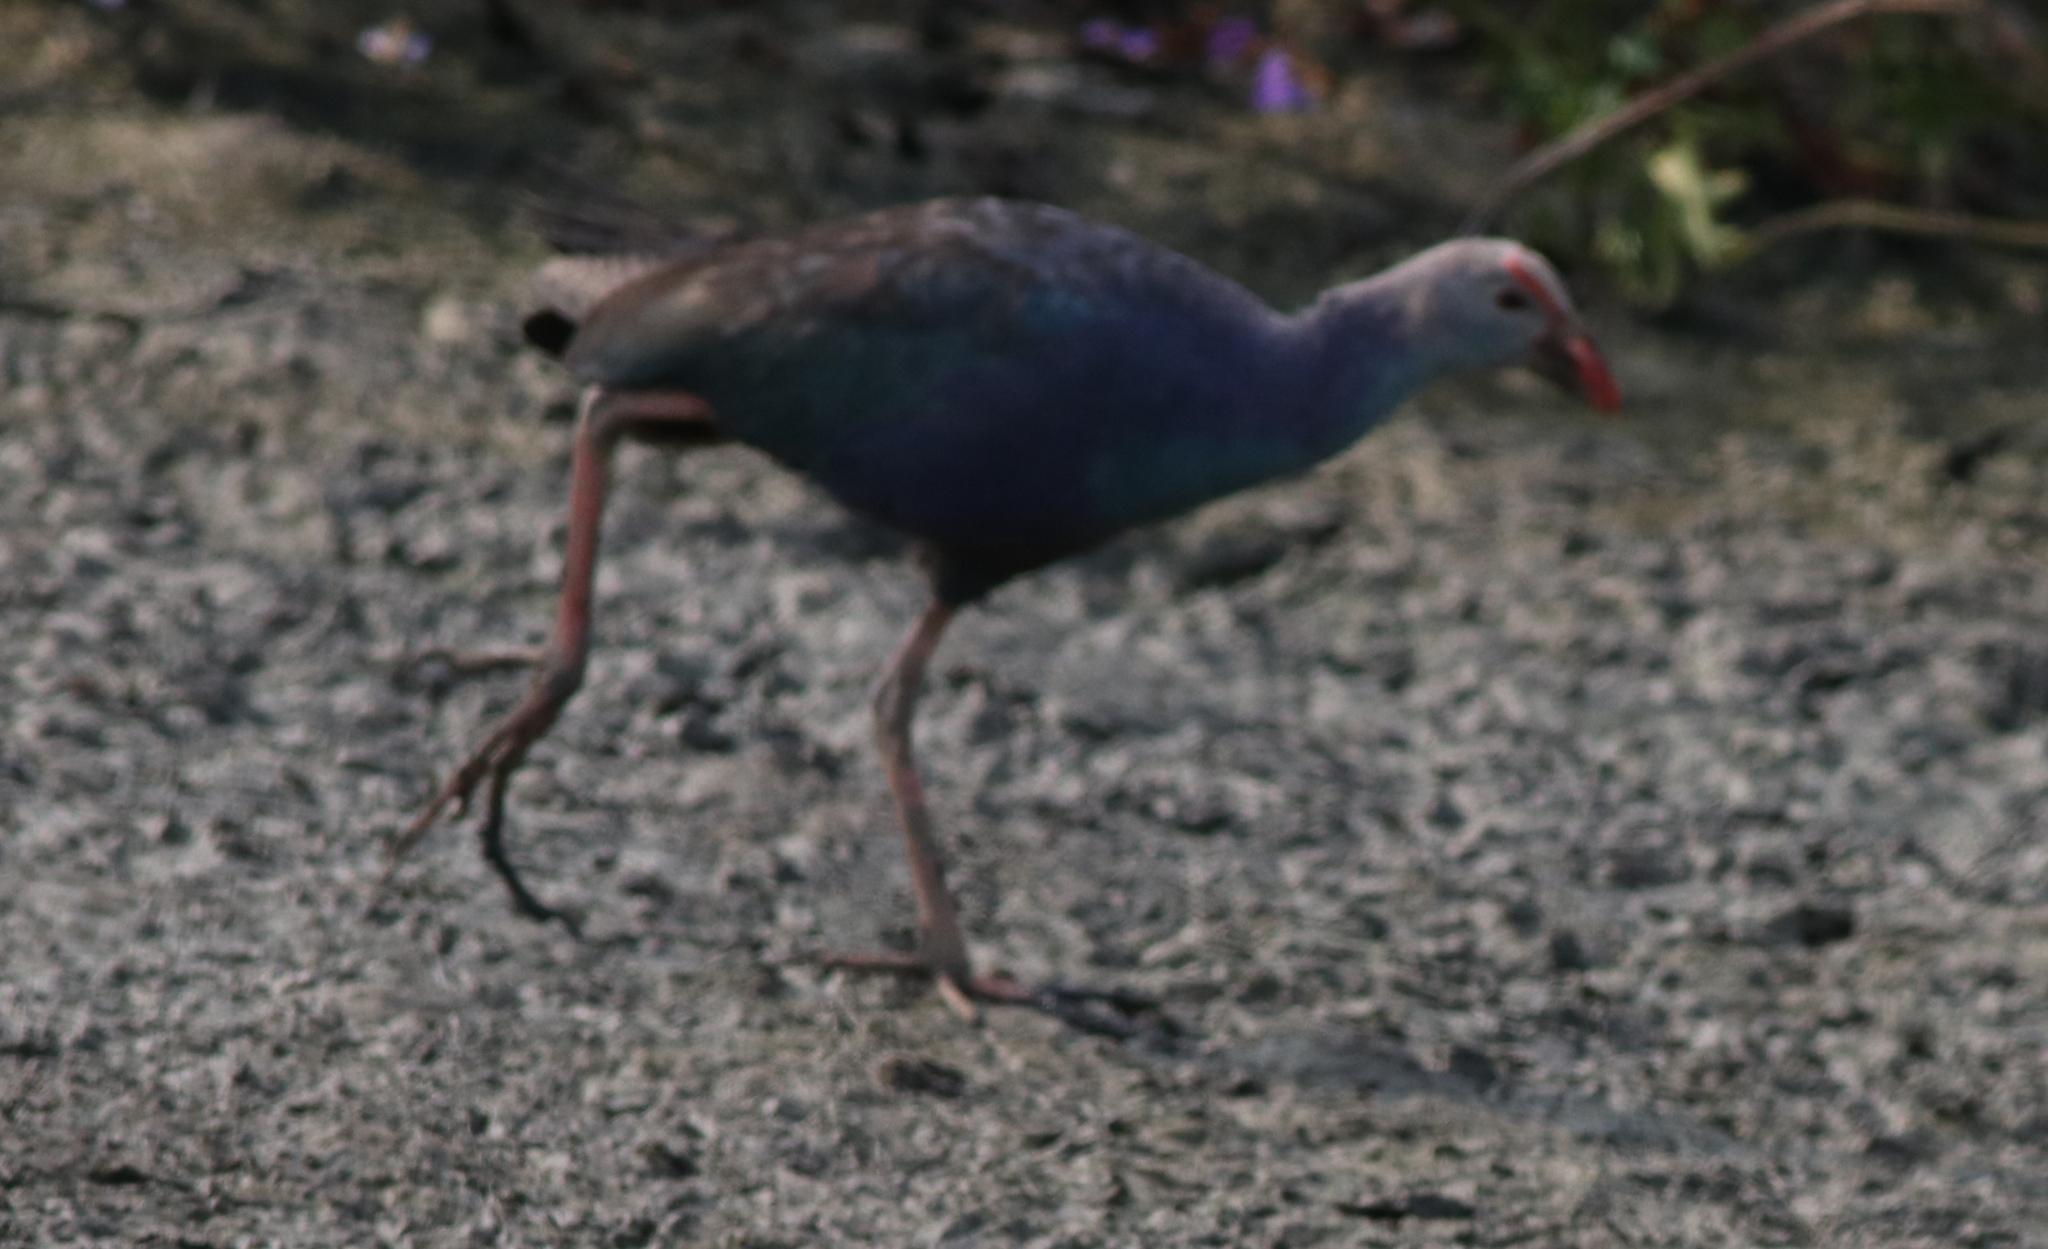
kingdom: Animalia
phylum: Chordata
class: Aves
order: Gruiformes
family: Rallidae
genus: Porphyrio
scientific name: Porphyrio porphyrio
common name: Purple swamphen
